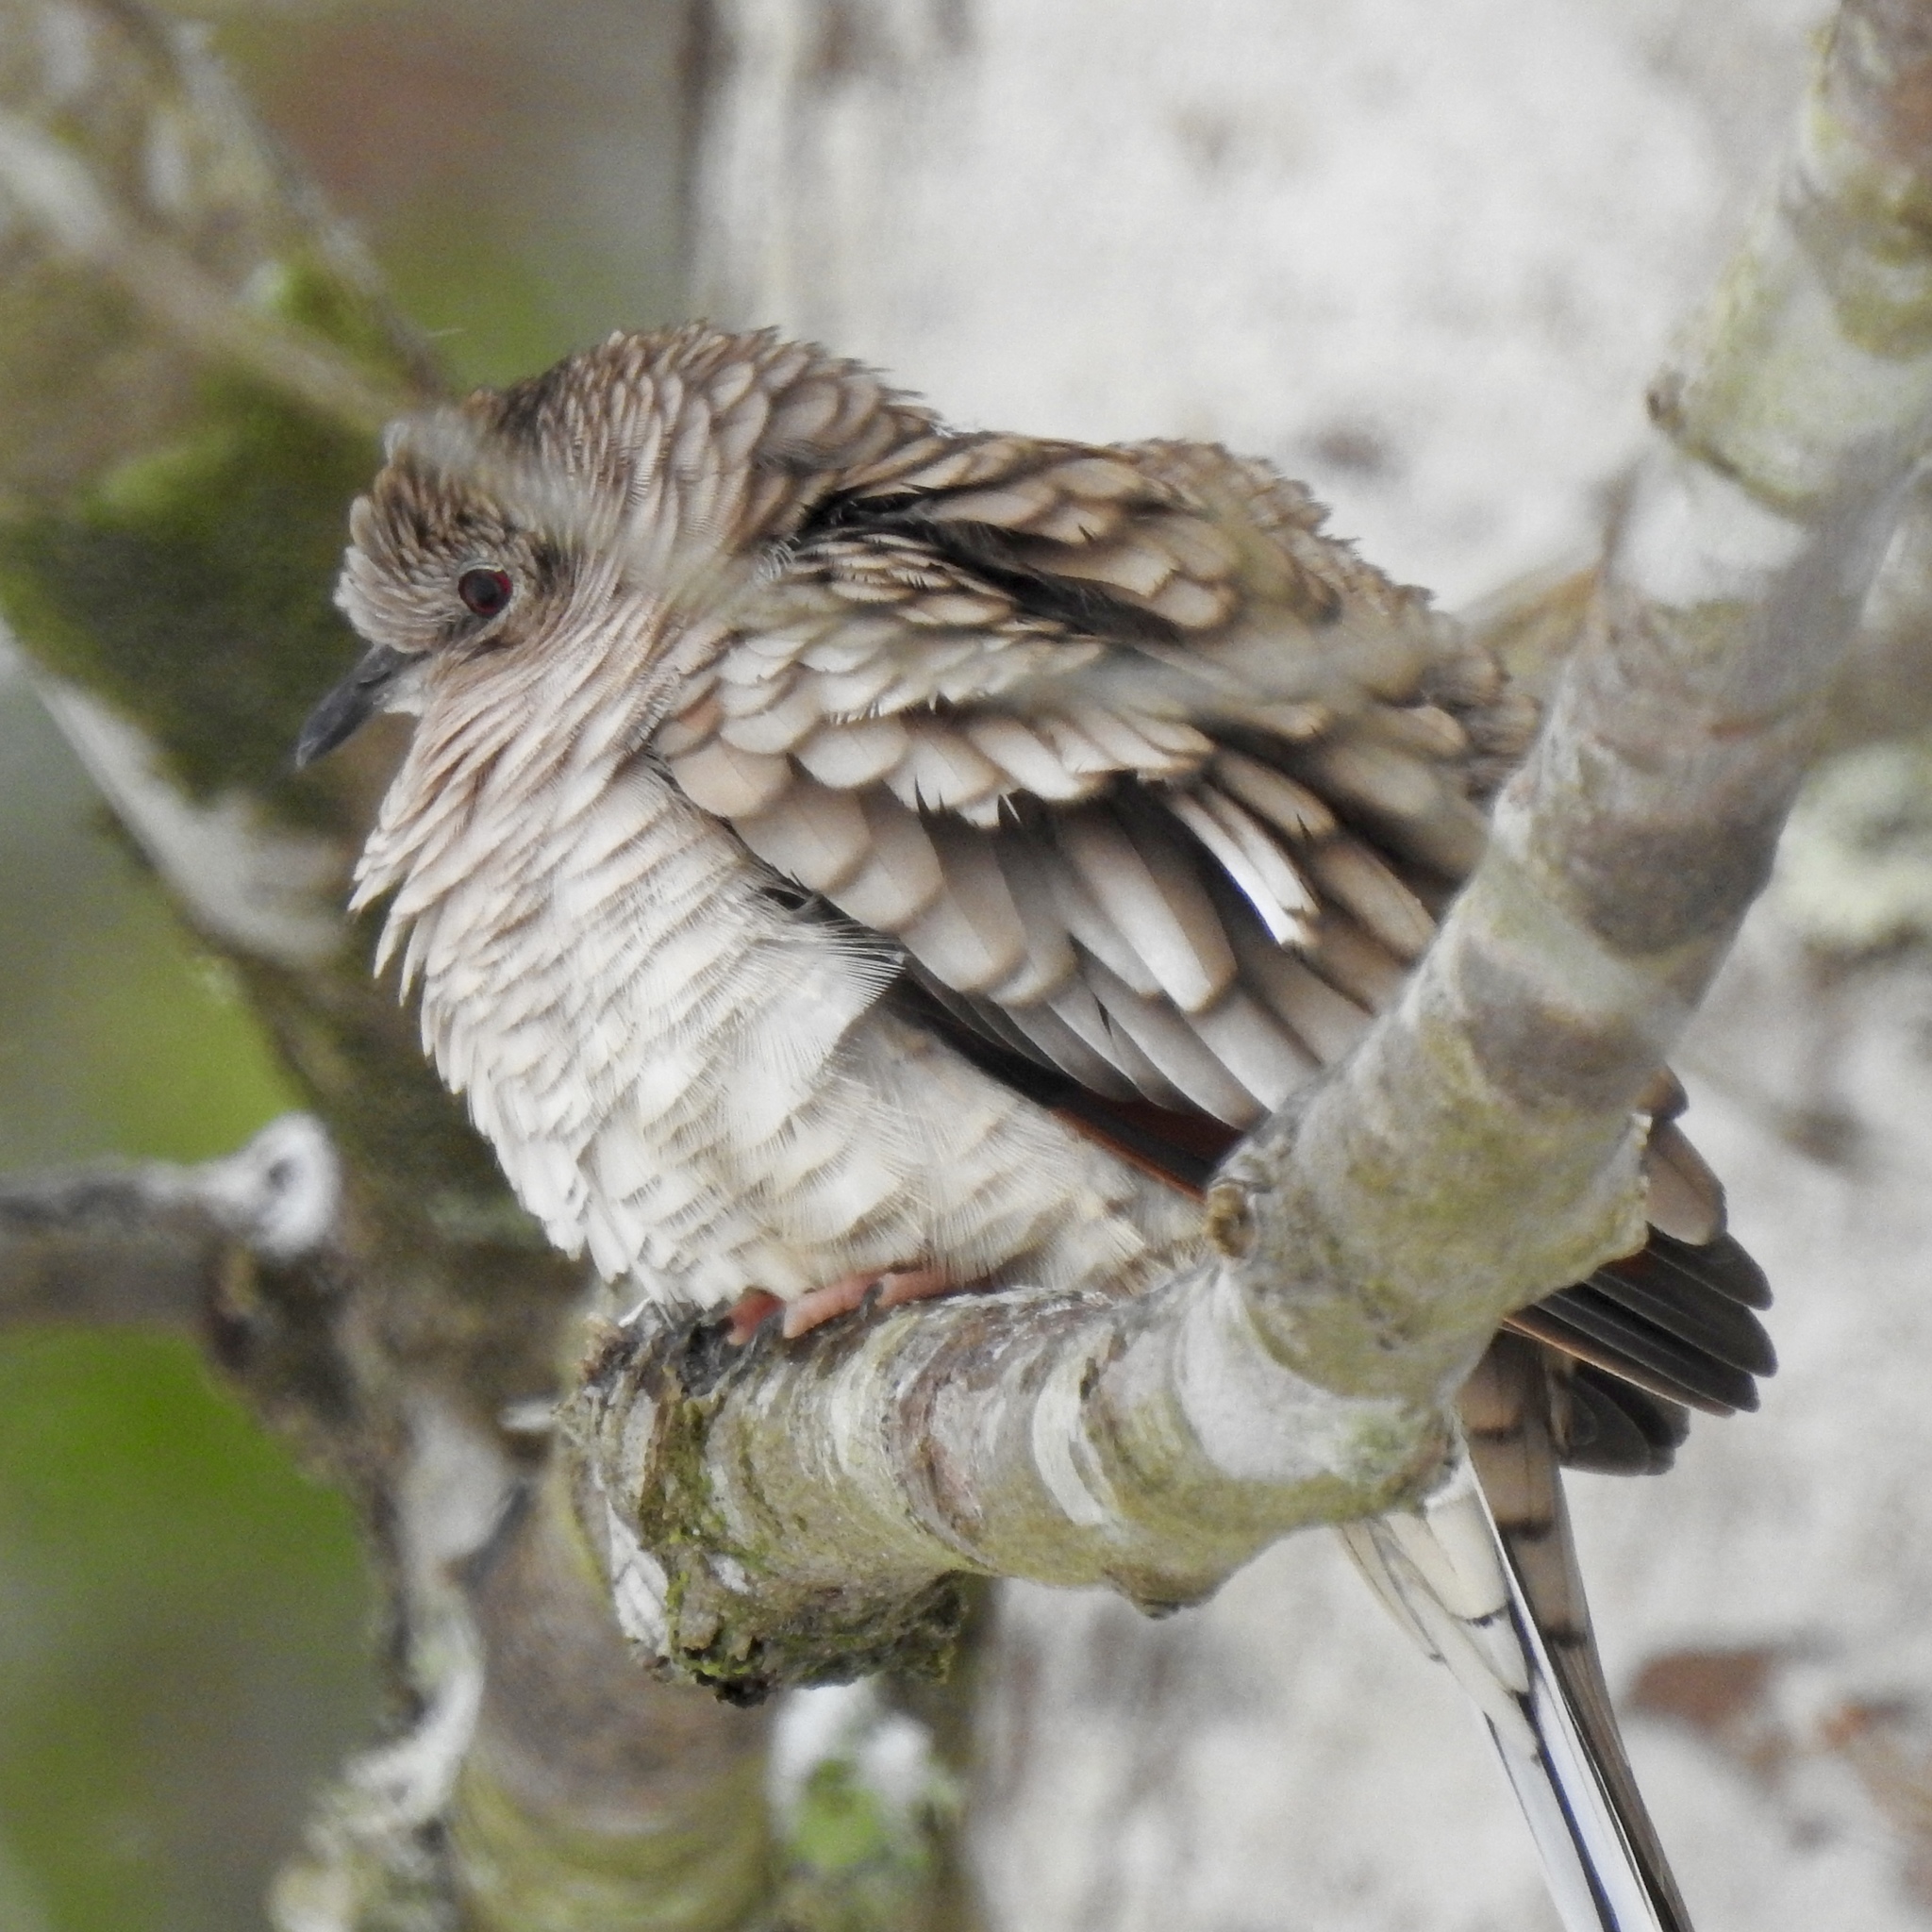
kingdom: Animalia
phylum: Chordata
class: Aves
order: Columbiformes
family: Columbidae
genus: Columbina
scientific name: Columbina inca
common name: Inca dove
